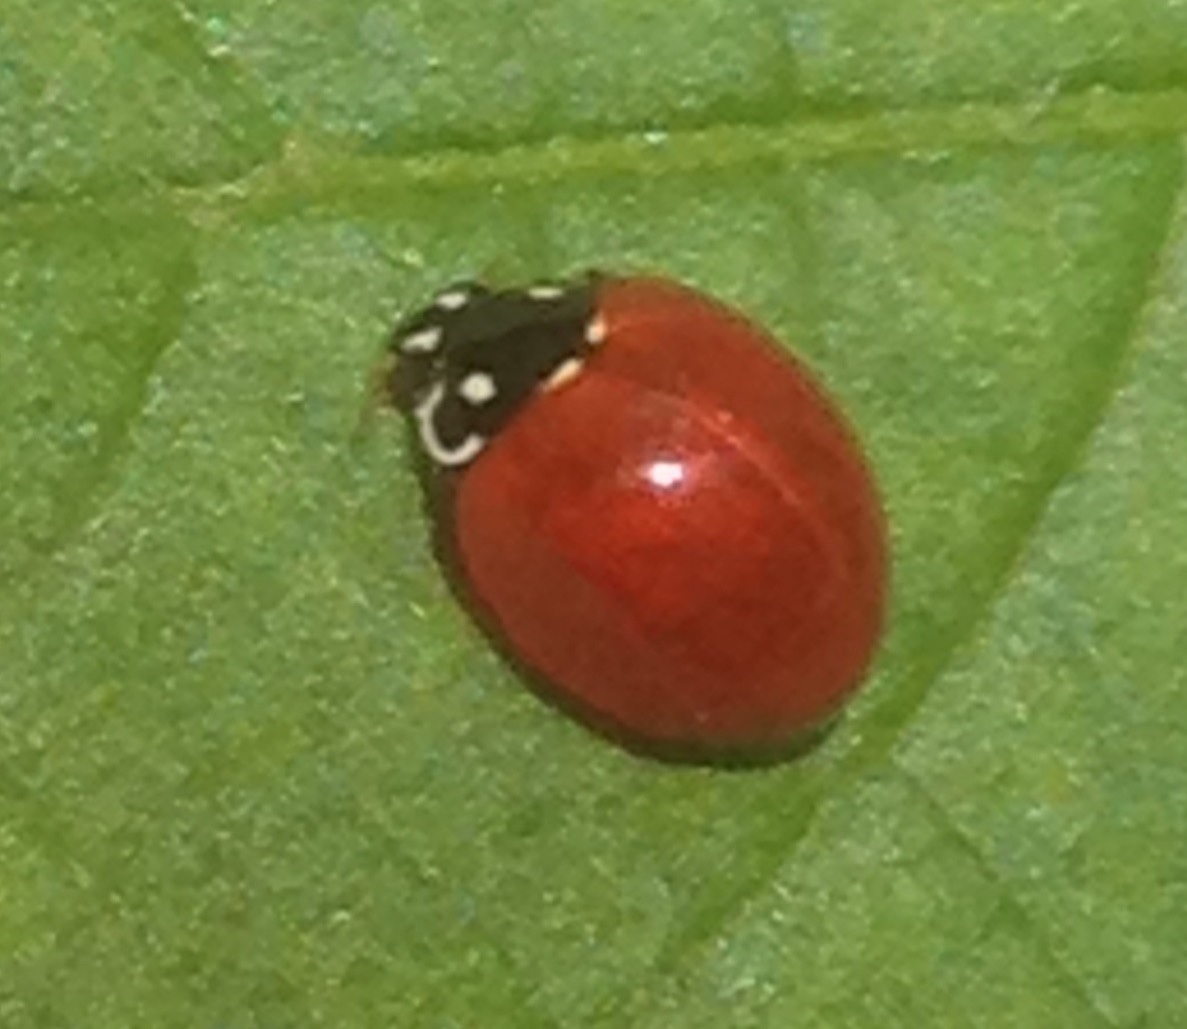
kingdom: Animalia
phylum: Arthropoda
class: Insecta
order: Coleoptera
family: Coccinellidae
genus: Cycloneda
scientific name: Cycloneda sanguinea
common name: Ladybird beetle
